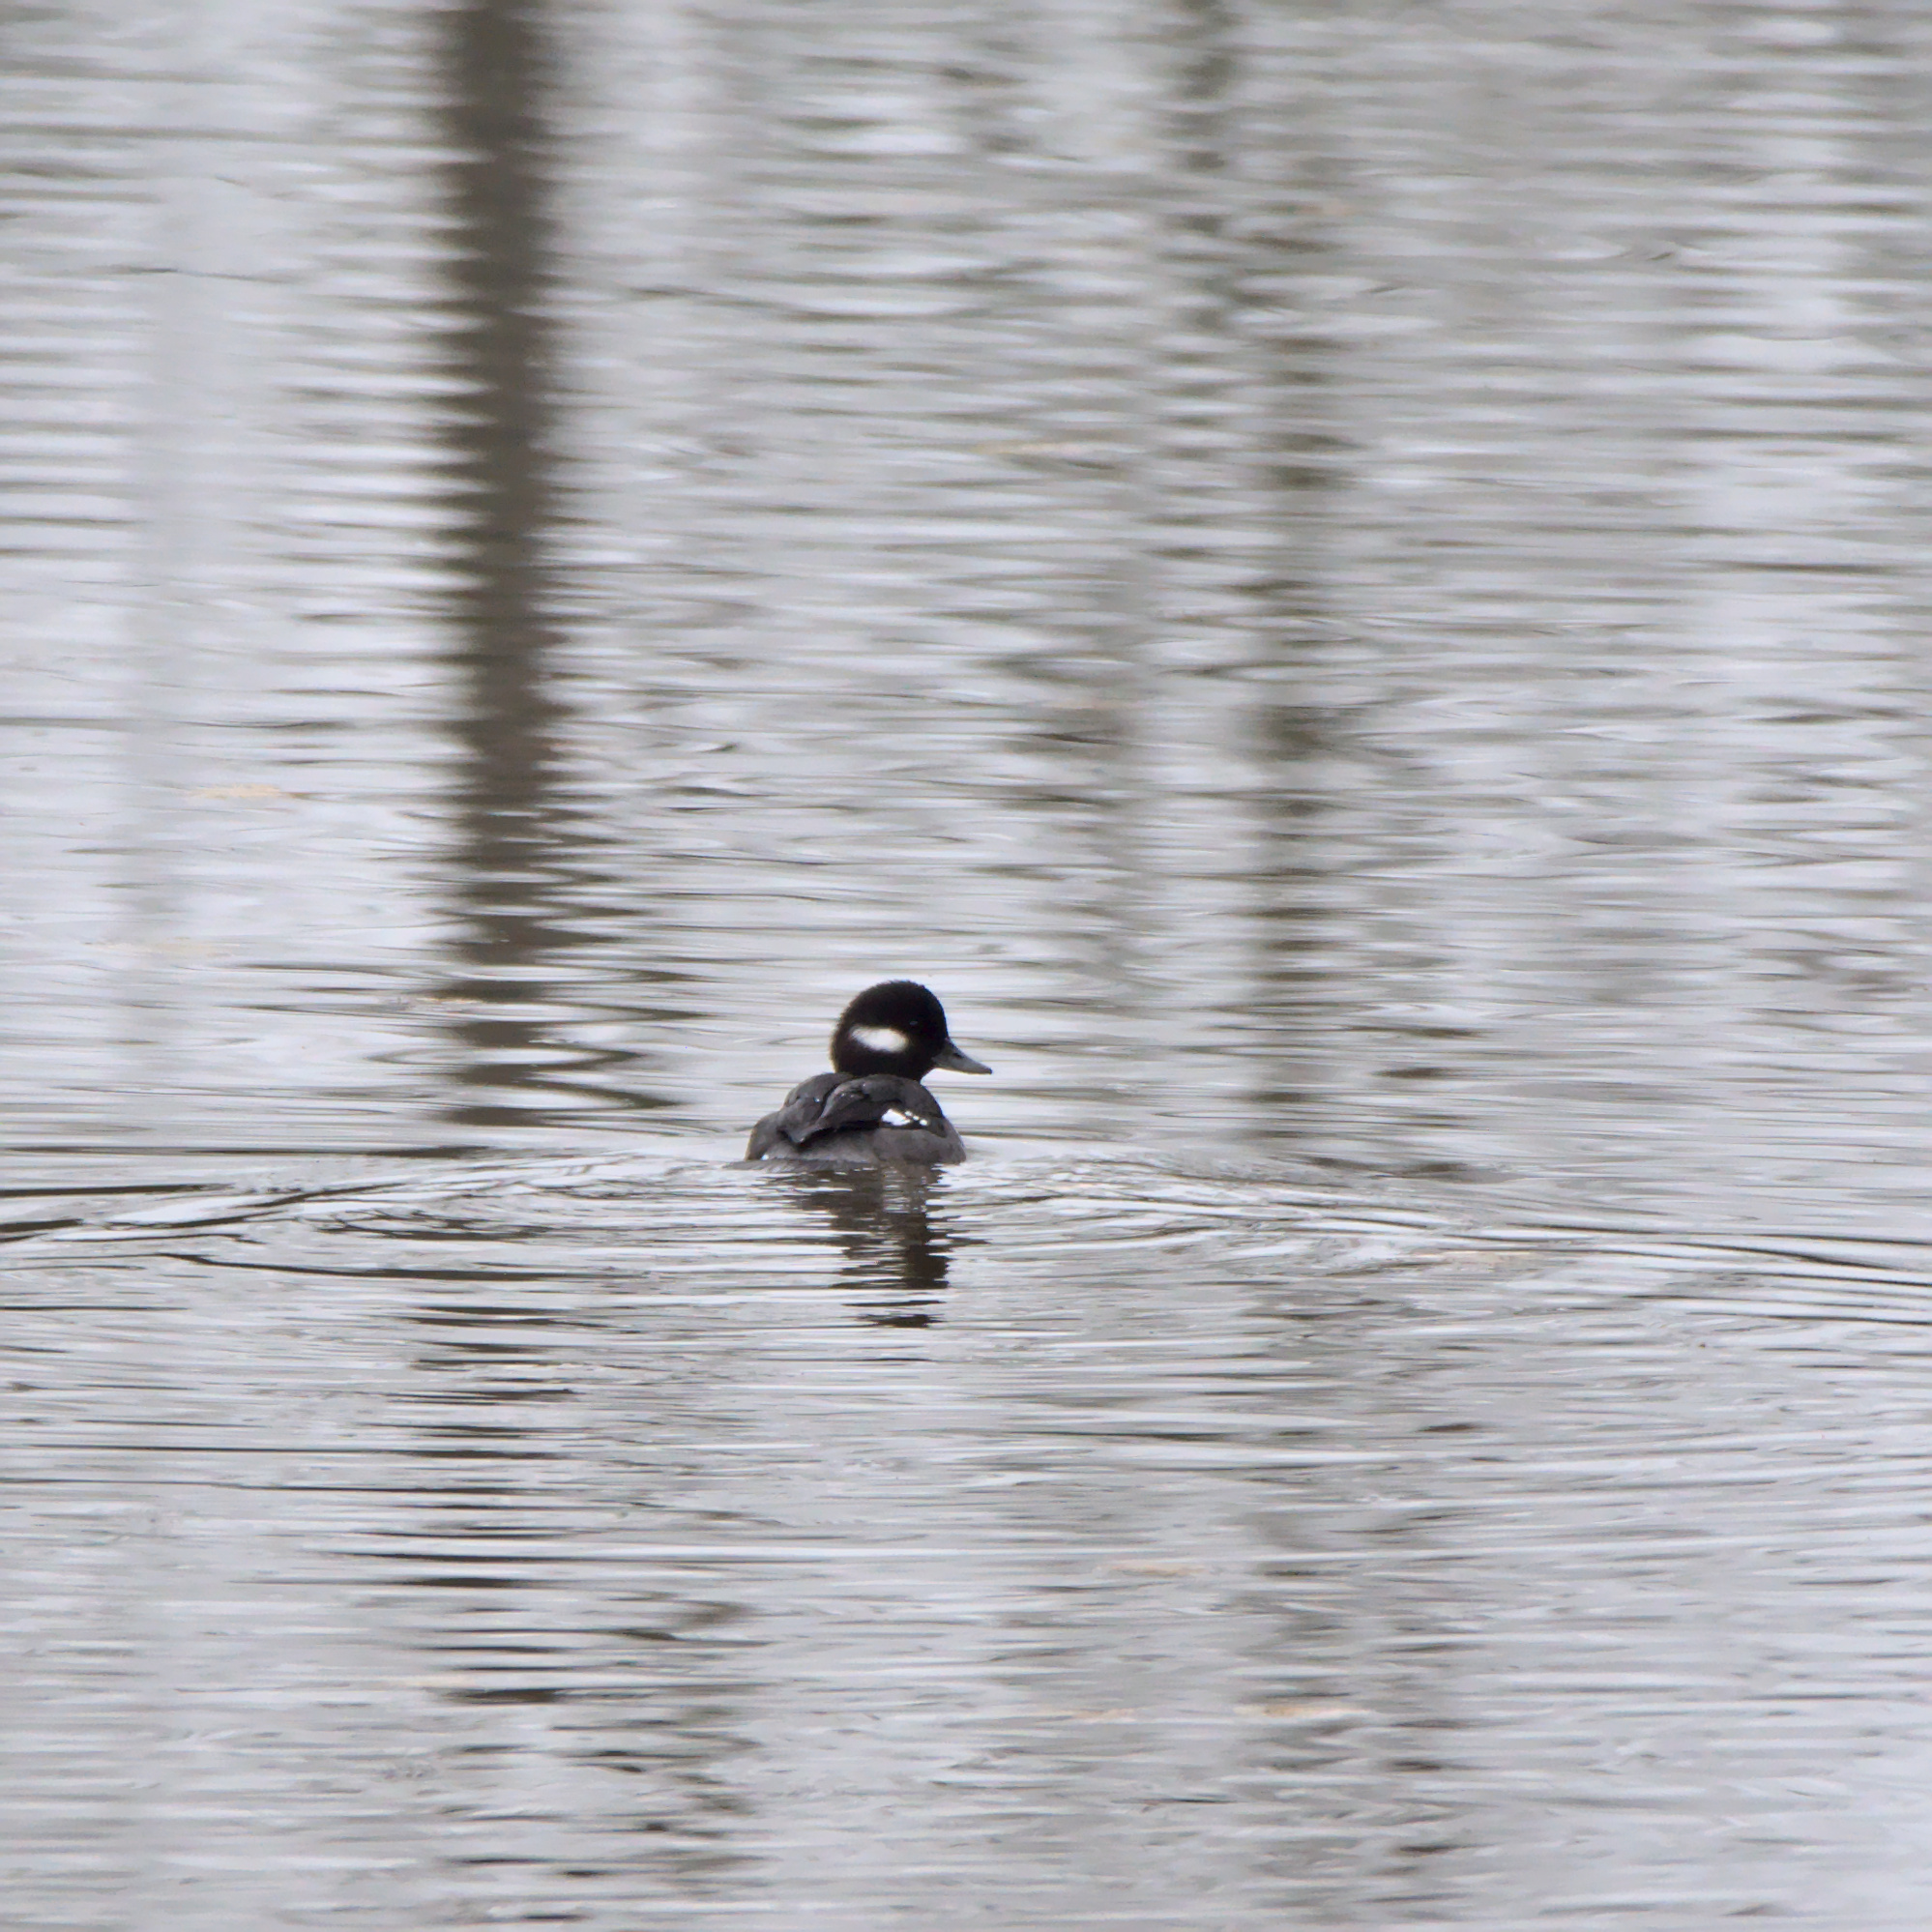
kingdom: Animalia
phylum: Chordata
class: Aves
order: Anseriformes
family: Anatidae
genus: Bucephala
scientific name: Bucephala albeola
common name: Bufflehead
